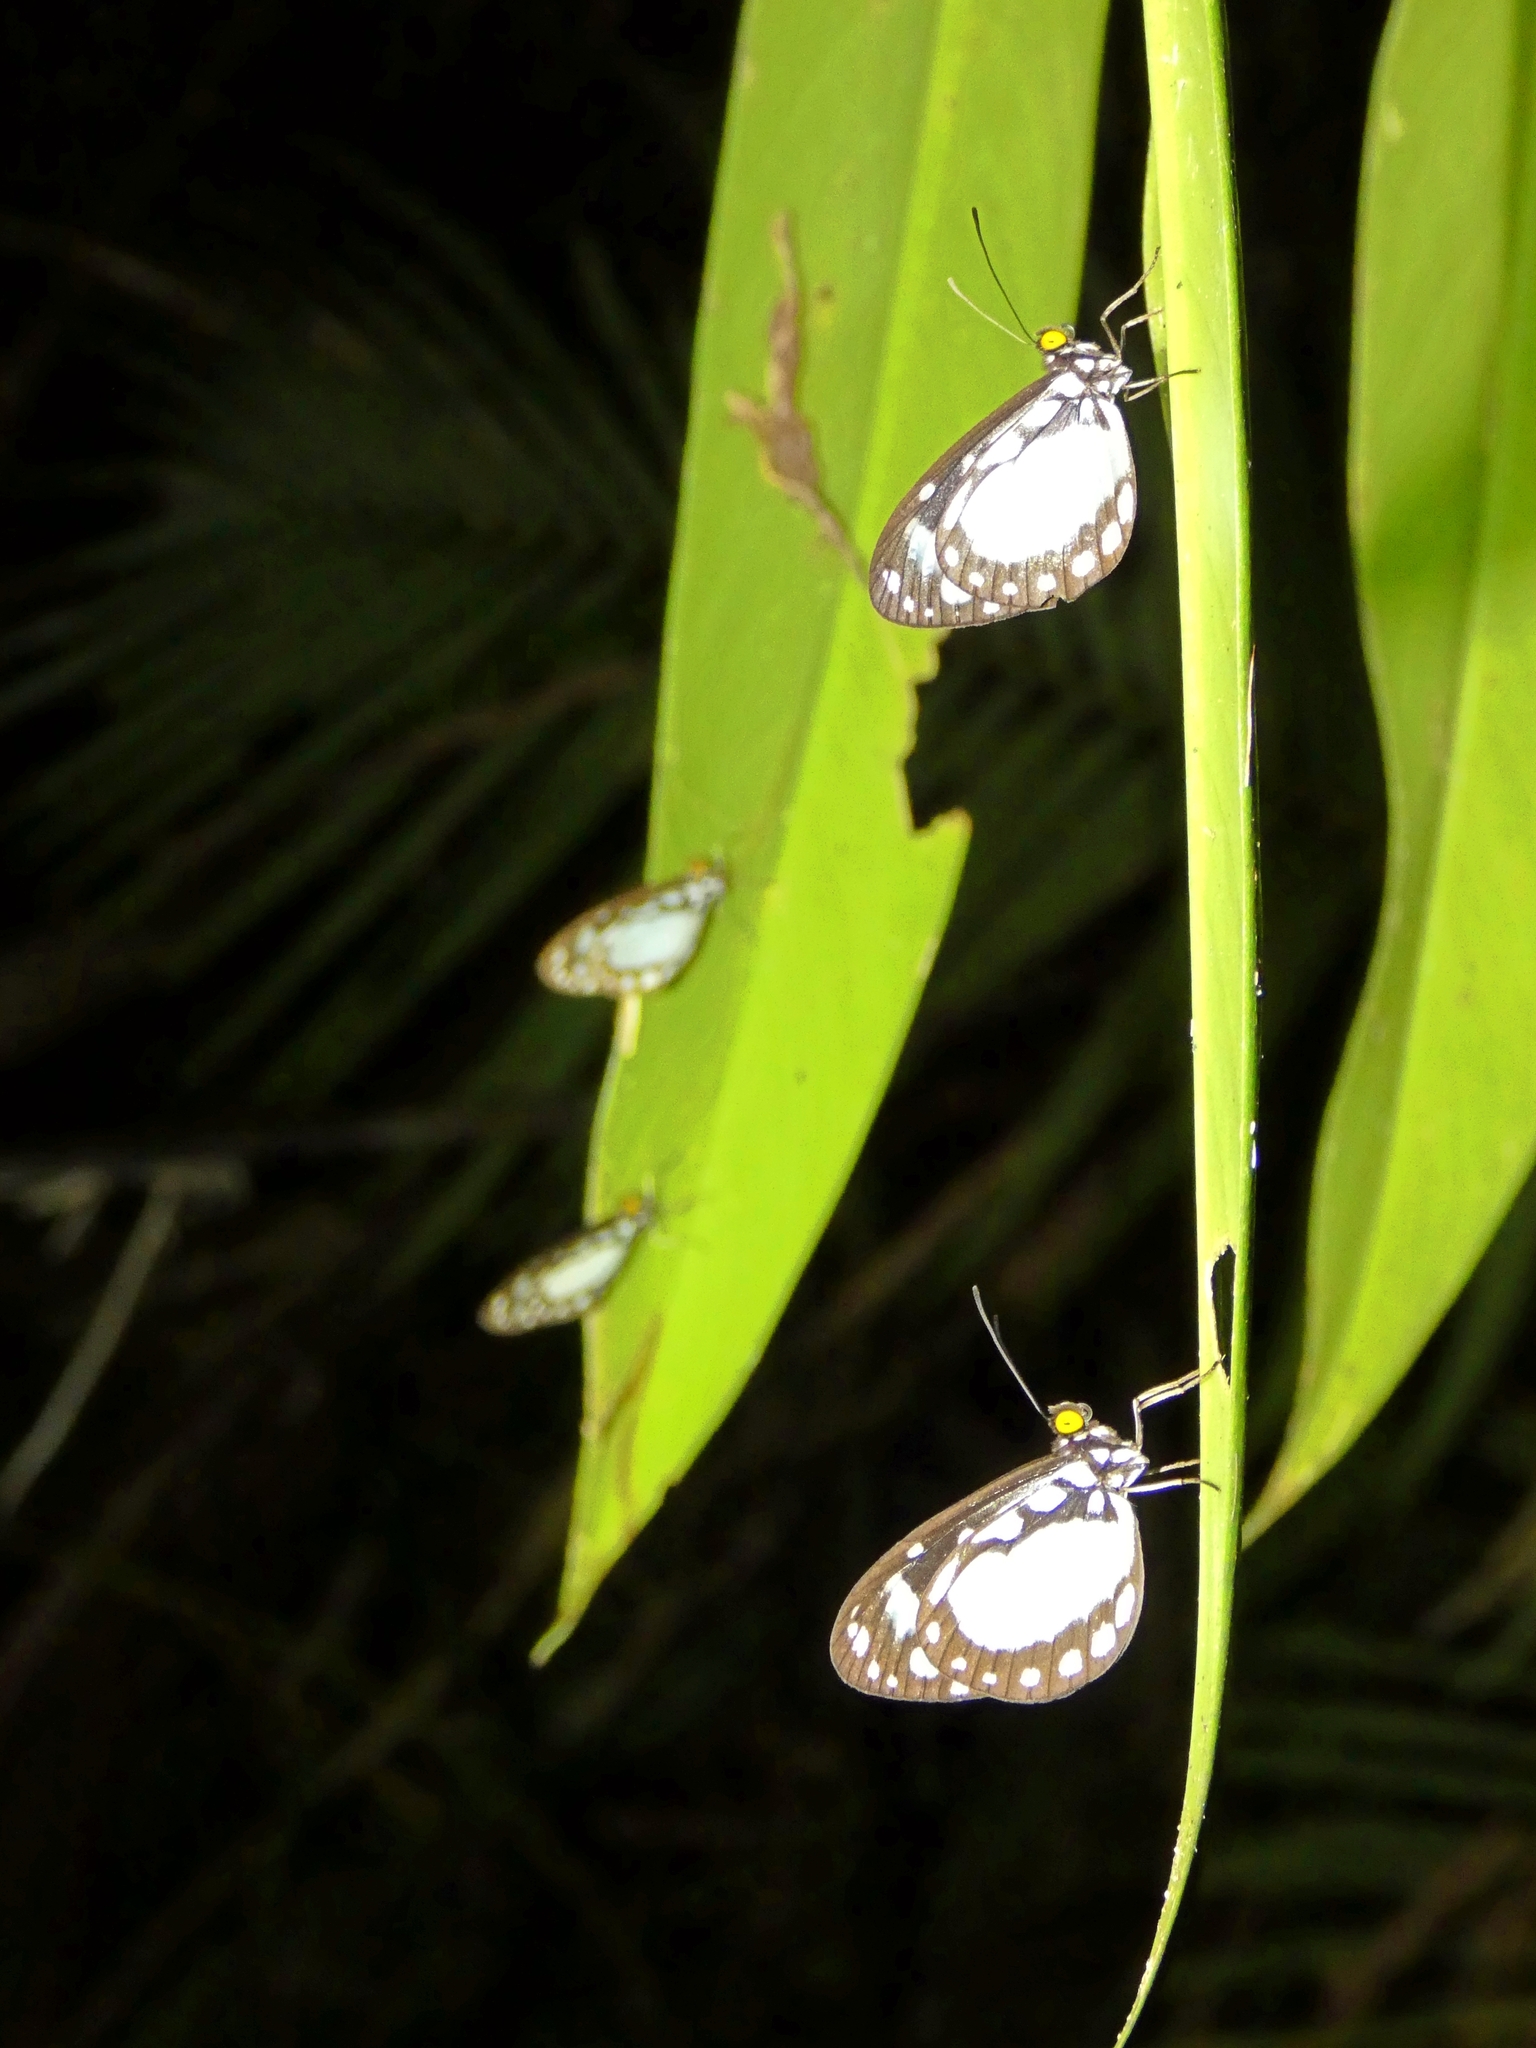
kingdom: Animalia
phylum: Arthropoda
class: Insecta
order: Lepidoptera
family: Nymphalidae
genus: Tellervo
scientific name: Tellervo zoilus
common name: Hamadryad
